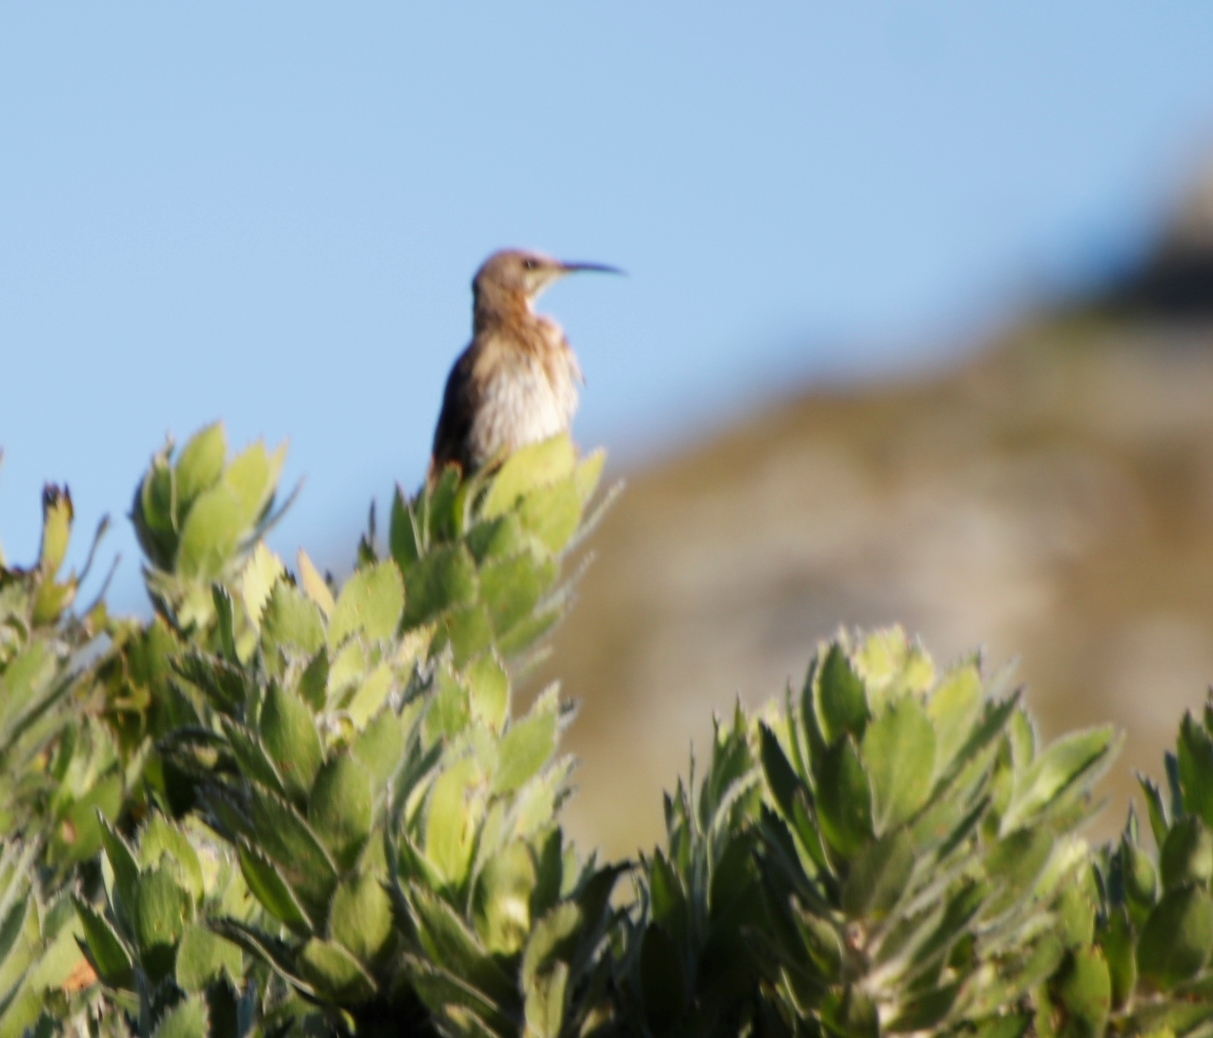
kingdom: Animalia
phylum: Chordata
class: Aves
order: Passeriformes
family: Promeropidae
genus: Promerops
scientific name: Promerops cafer
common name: Cape sugarbird
